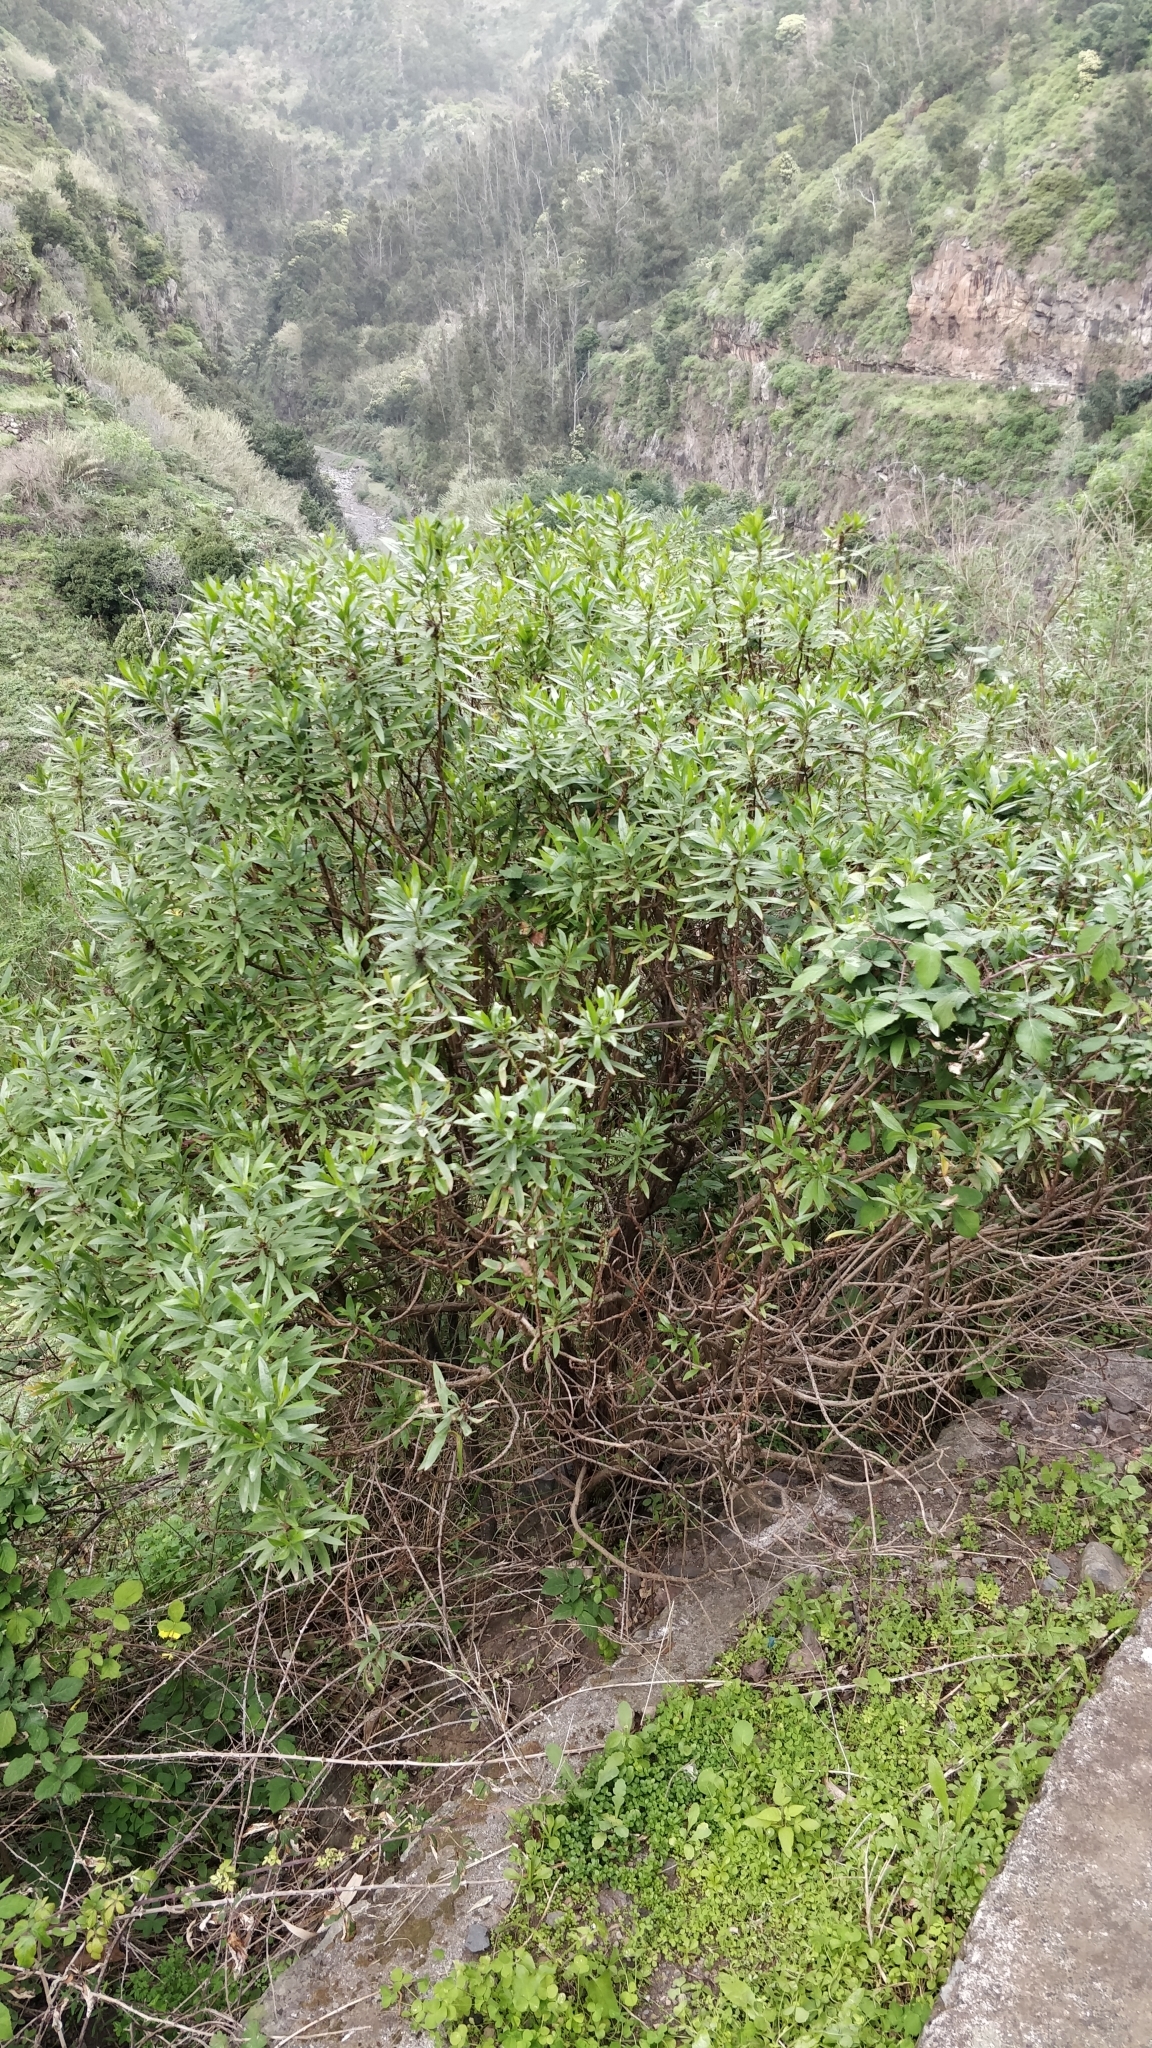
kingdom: Plantae
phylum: Tracheophyta
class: Magnoliopsida
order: Lamiales
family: Plantaginaceae
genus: Globularia
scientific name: Globularia salicina
